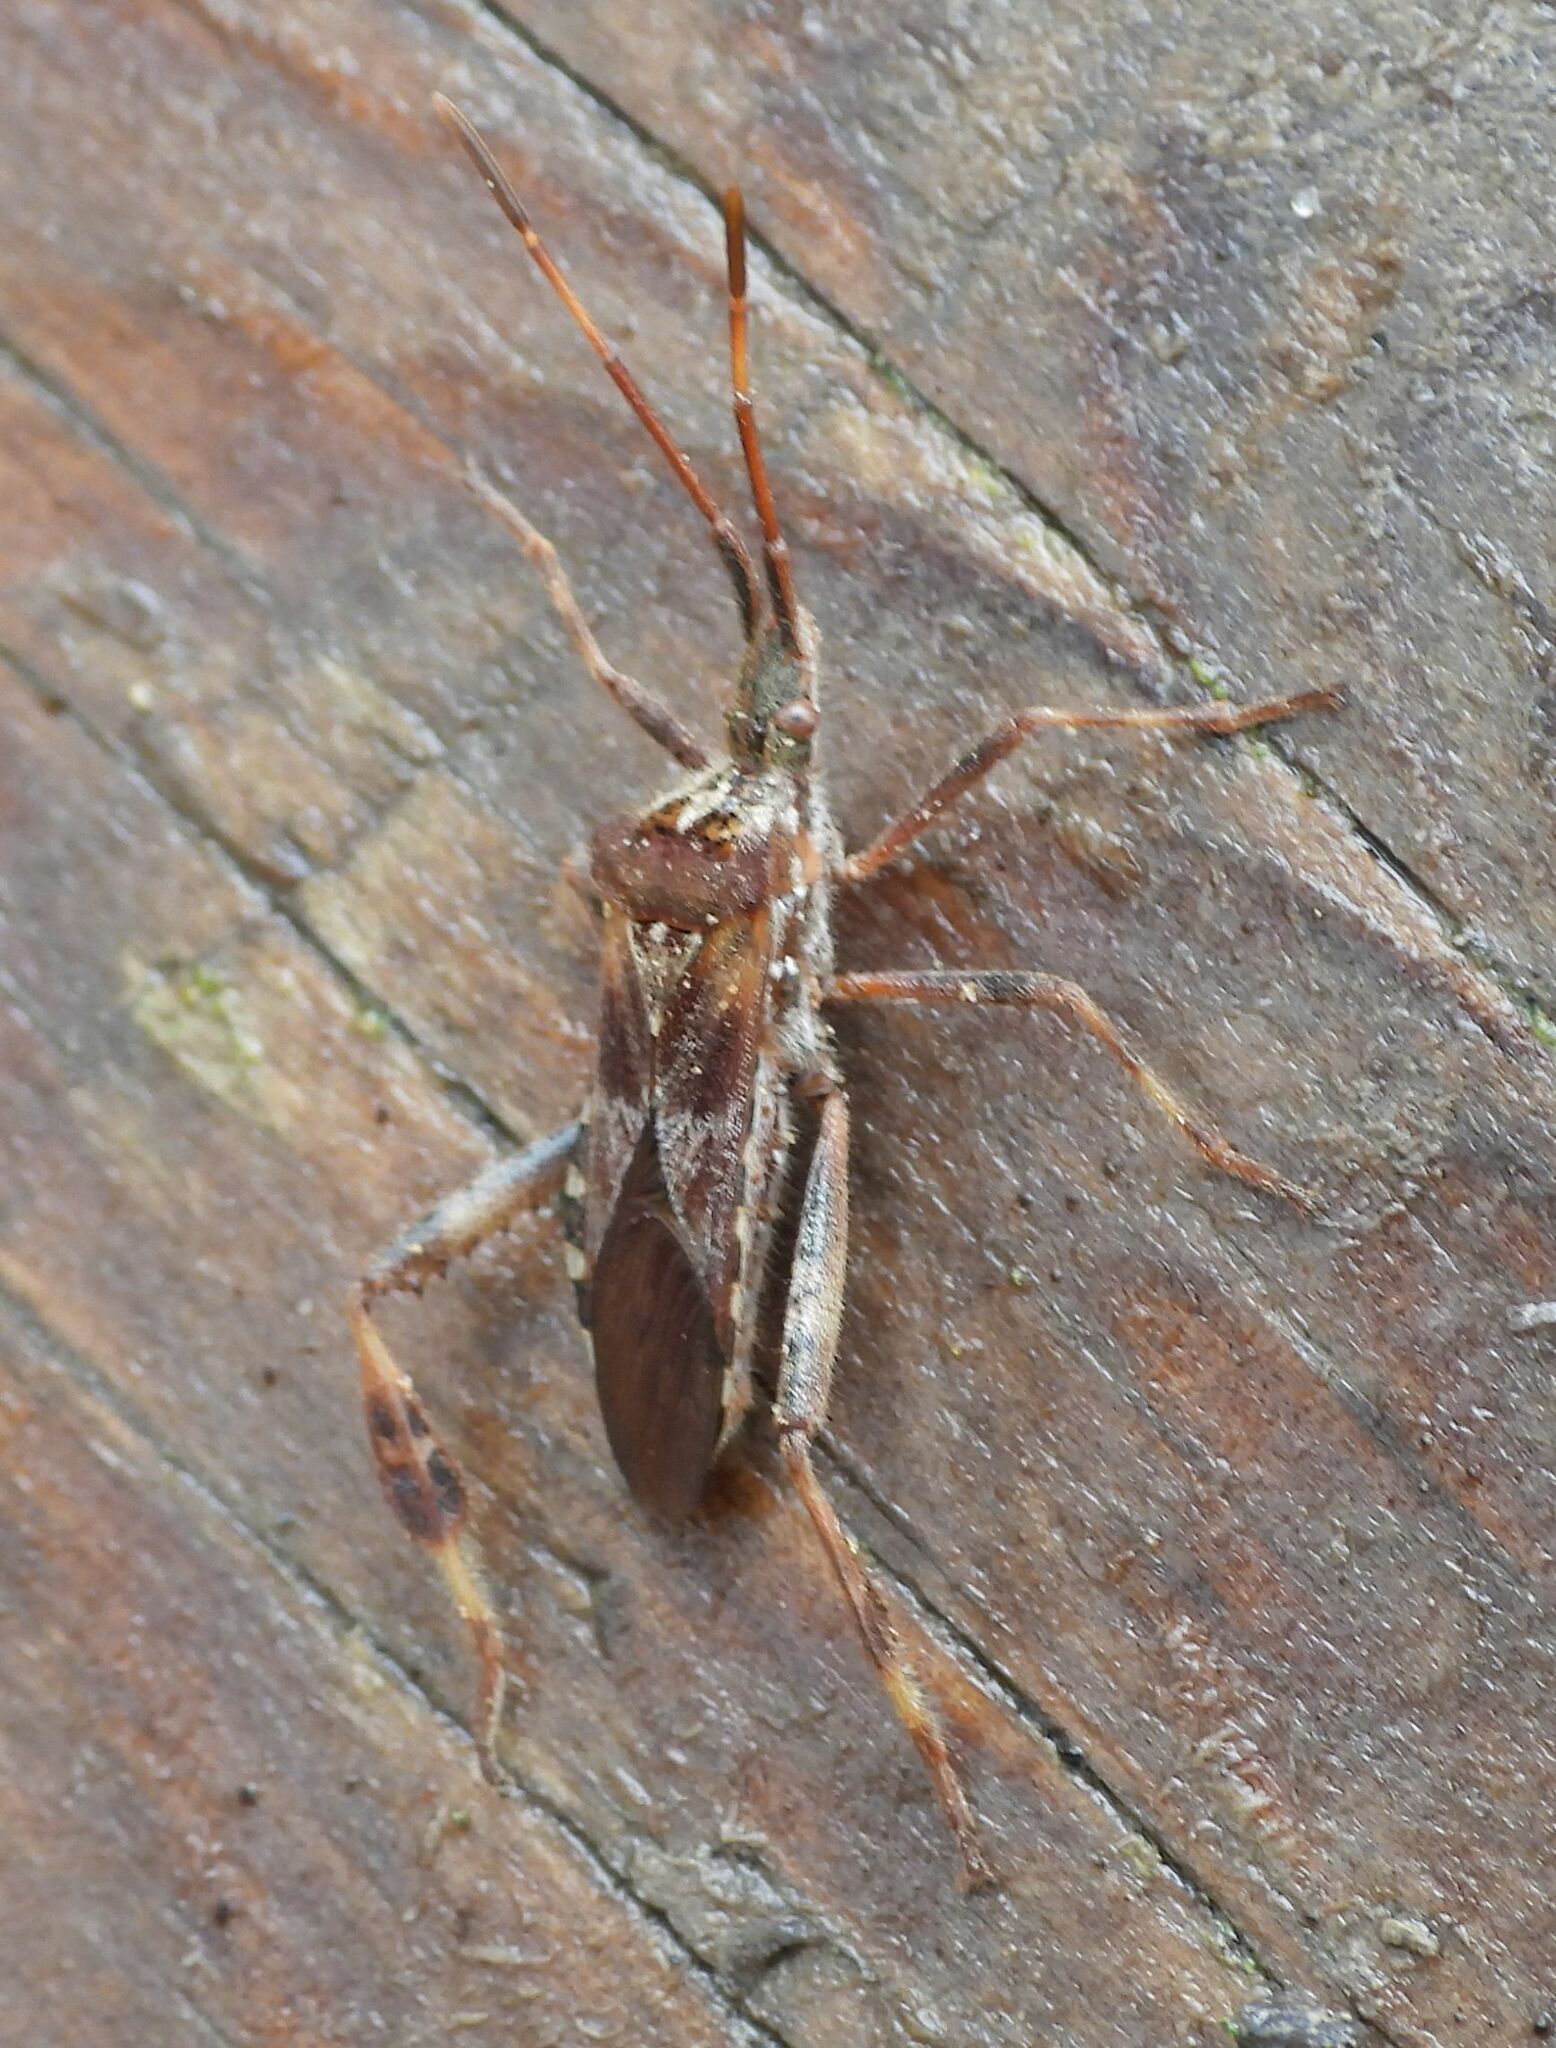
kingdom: Animalia
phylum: Arthropoda
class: Insecta
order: Hemiptera
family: Coreidae
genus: Leptoglossus
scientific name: Leptoglossus occidentalis
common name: Western conifer-seed bug
